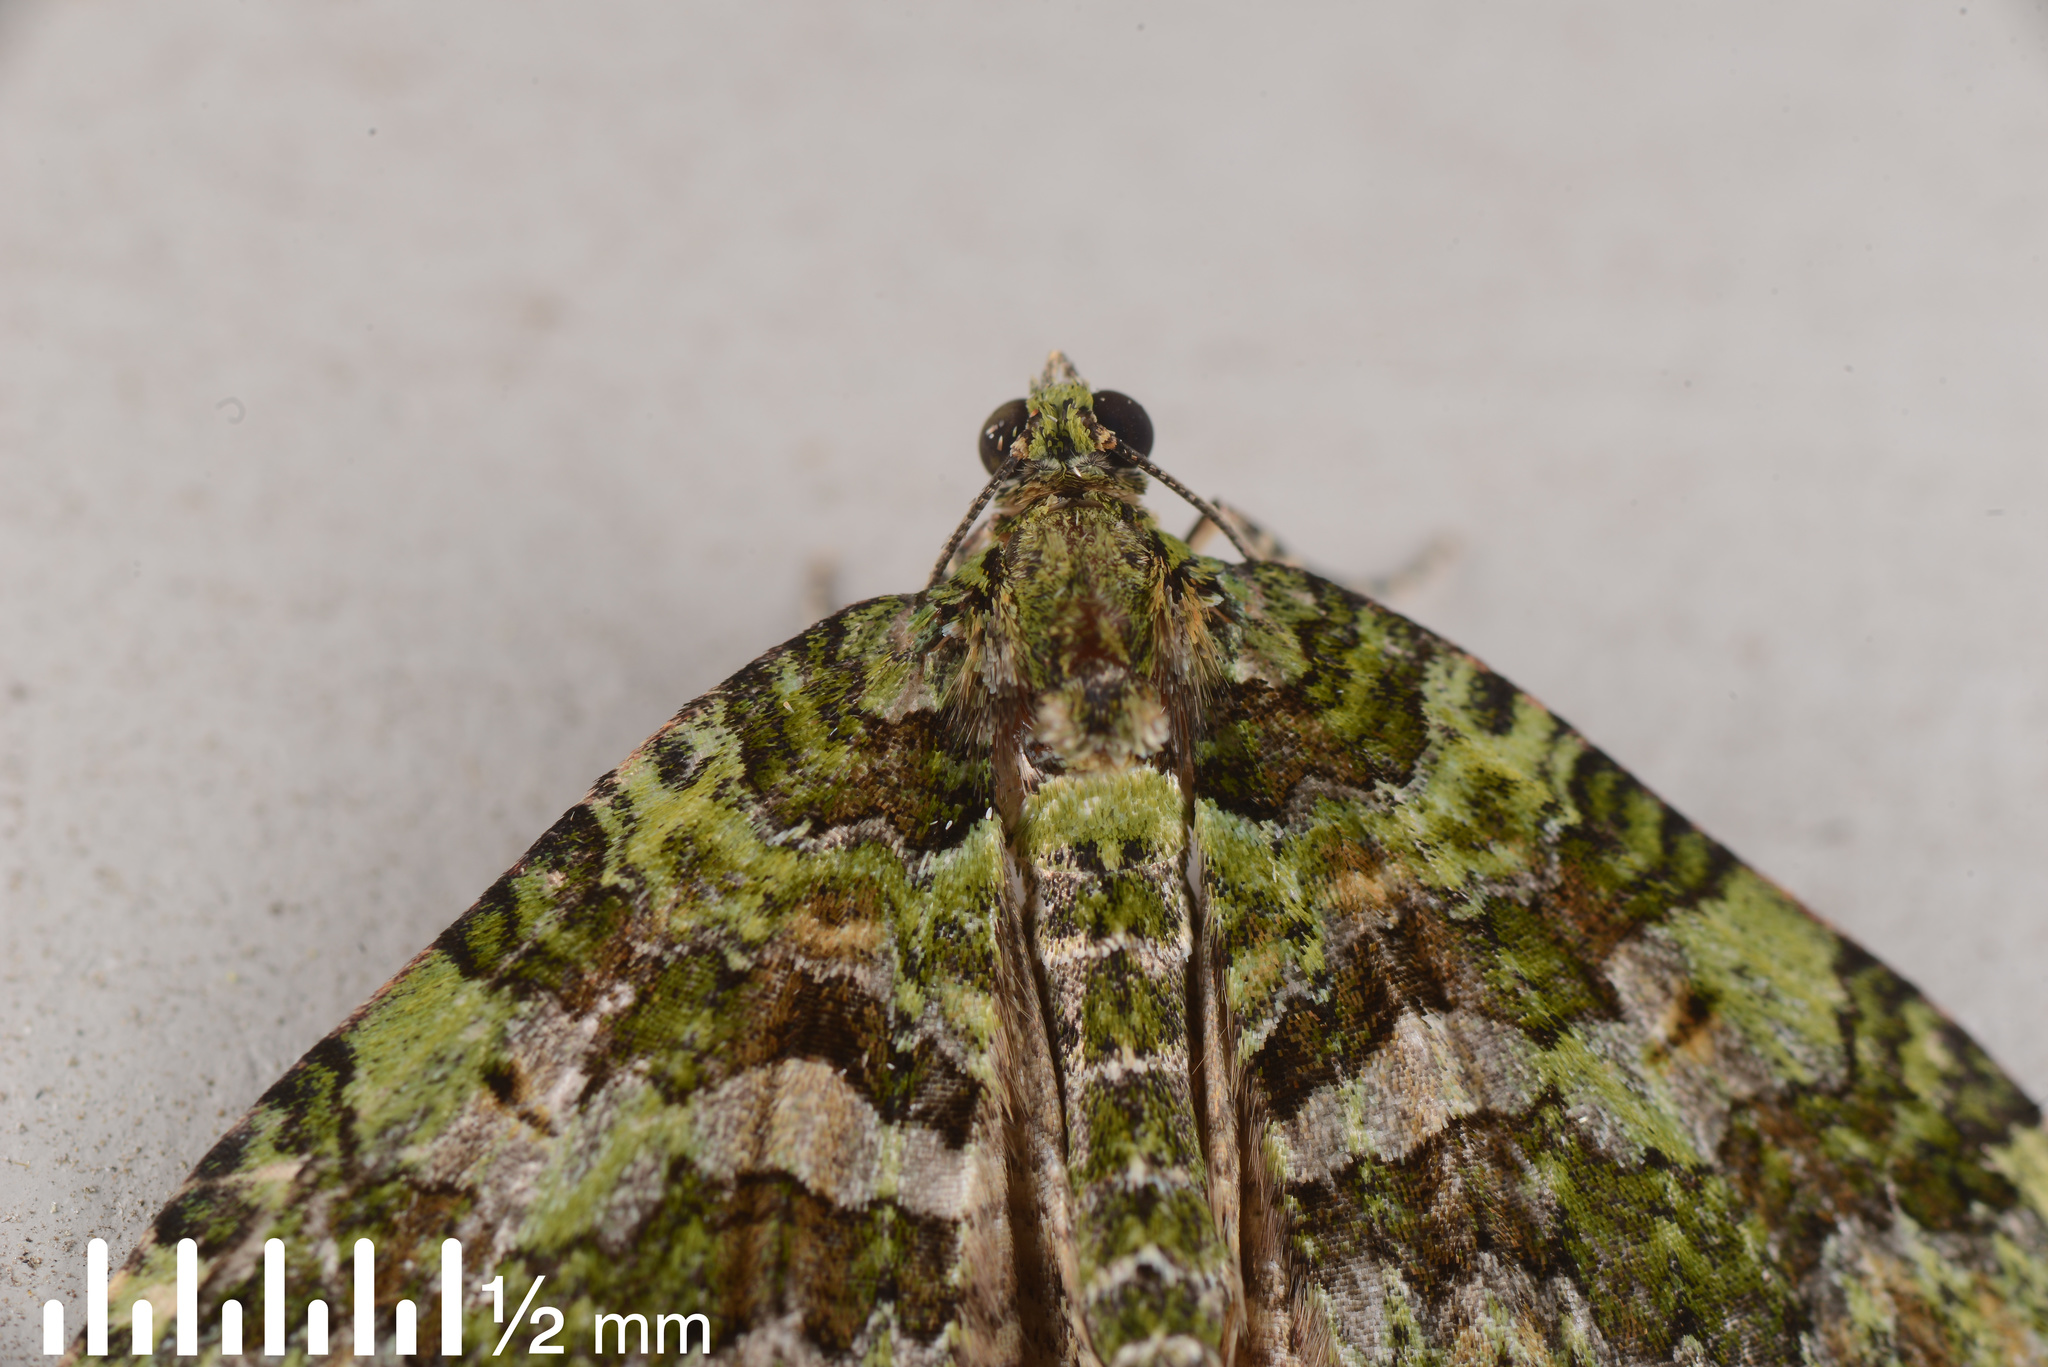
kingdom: Animalia
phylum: Arthropoda
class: Insecta
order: Lepidoptera
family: Geometridae
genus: Austrocidaria
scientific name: Austrocidaria similata
